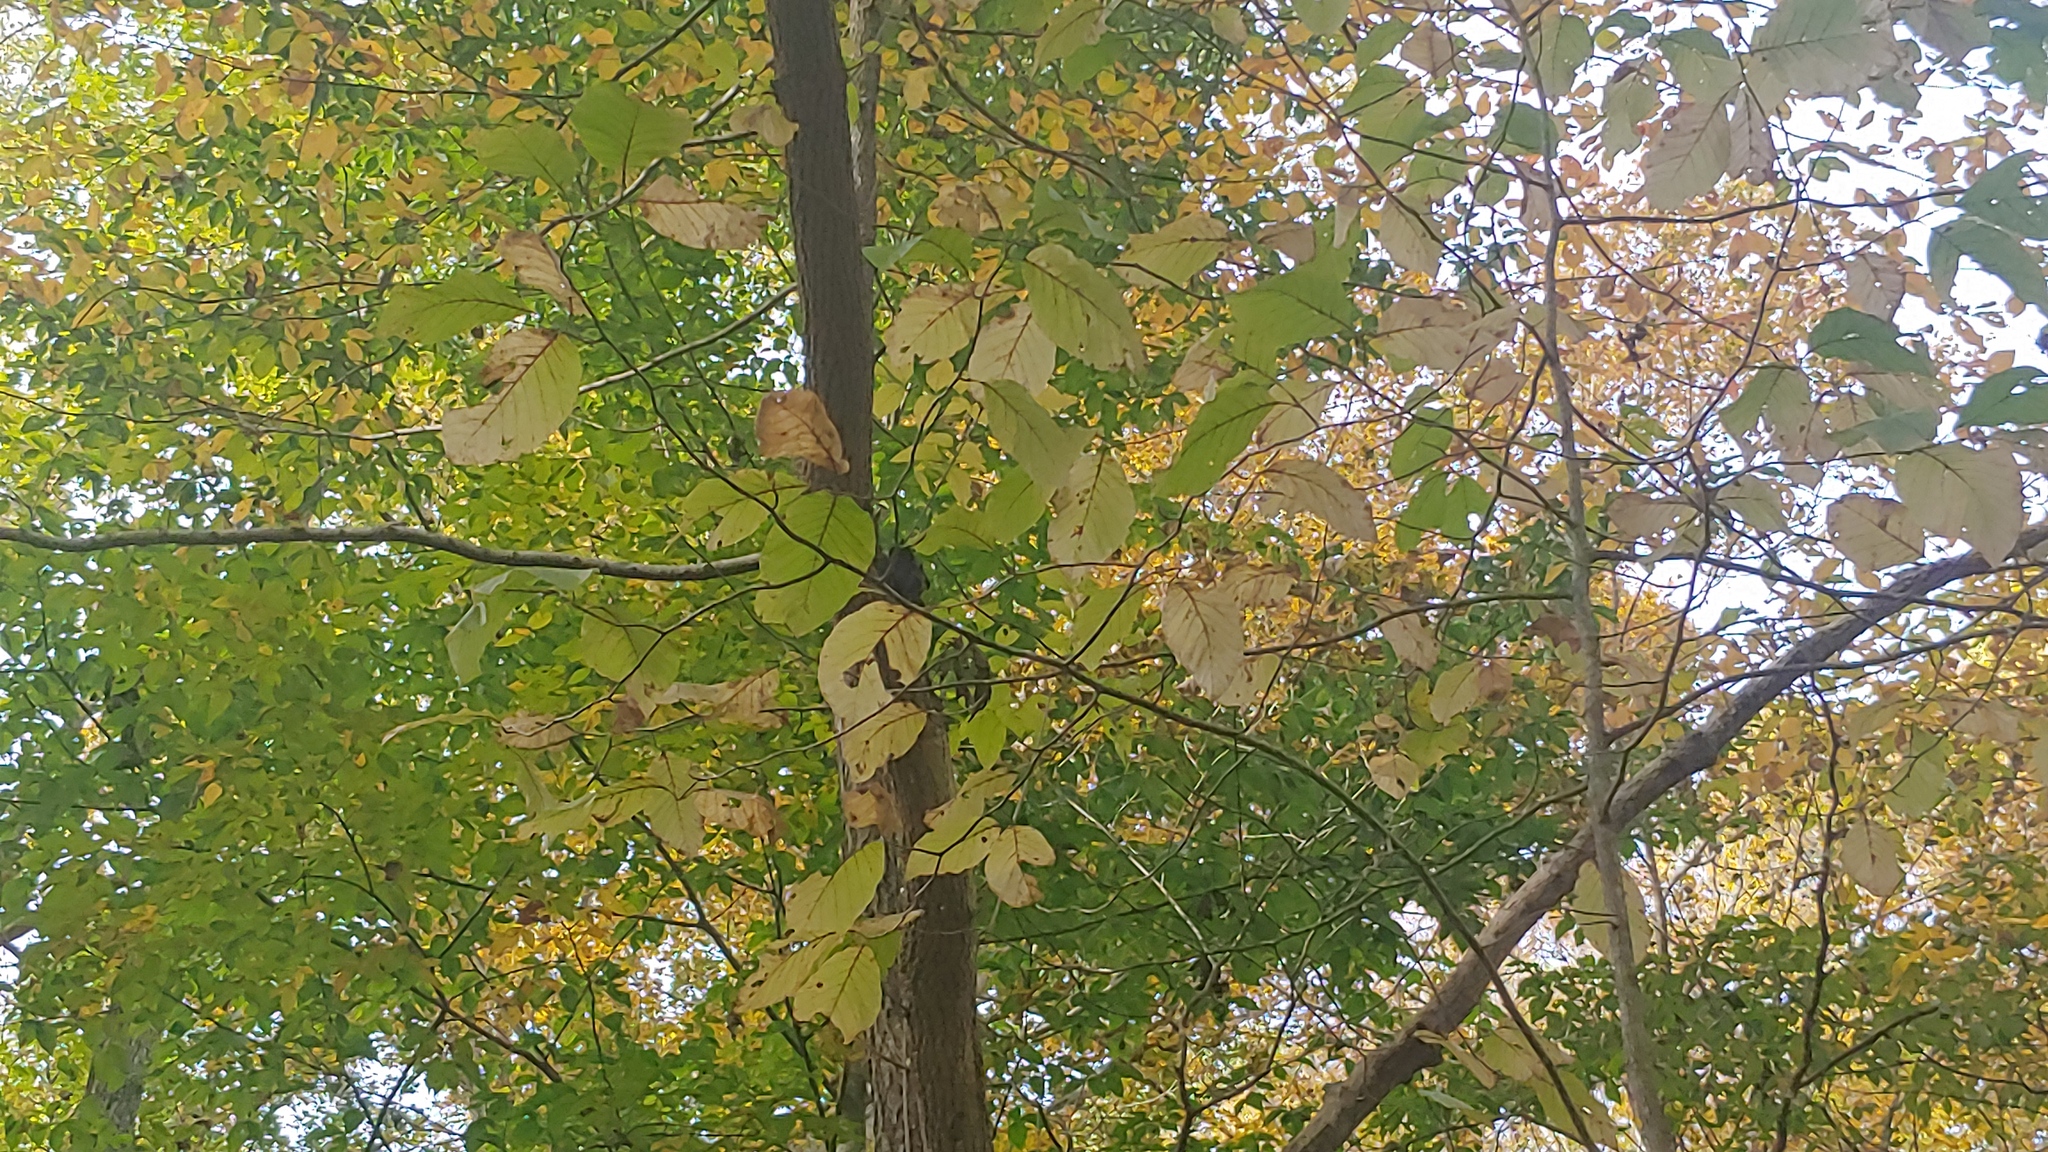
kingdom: Plantae
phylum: Tracheophyta
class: Magnoliopsida
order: Magnoliales
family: Magnoliaceae
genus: Magnolia
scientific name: Magnolia acuminata
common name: Cucumber magnolia
